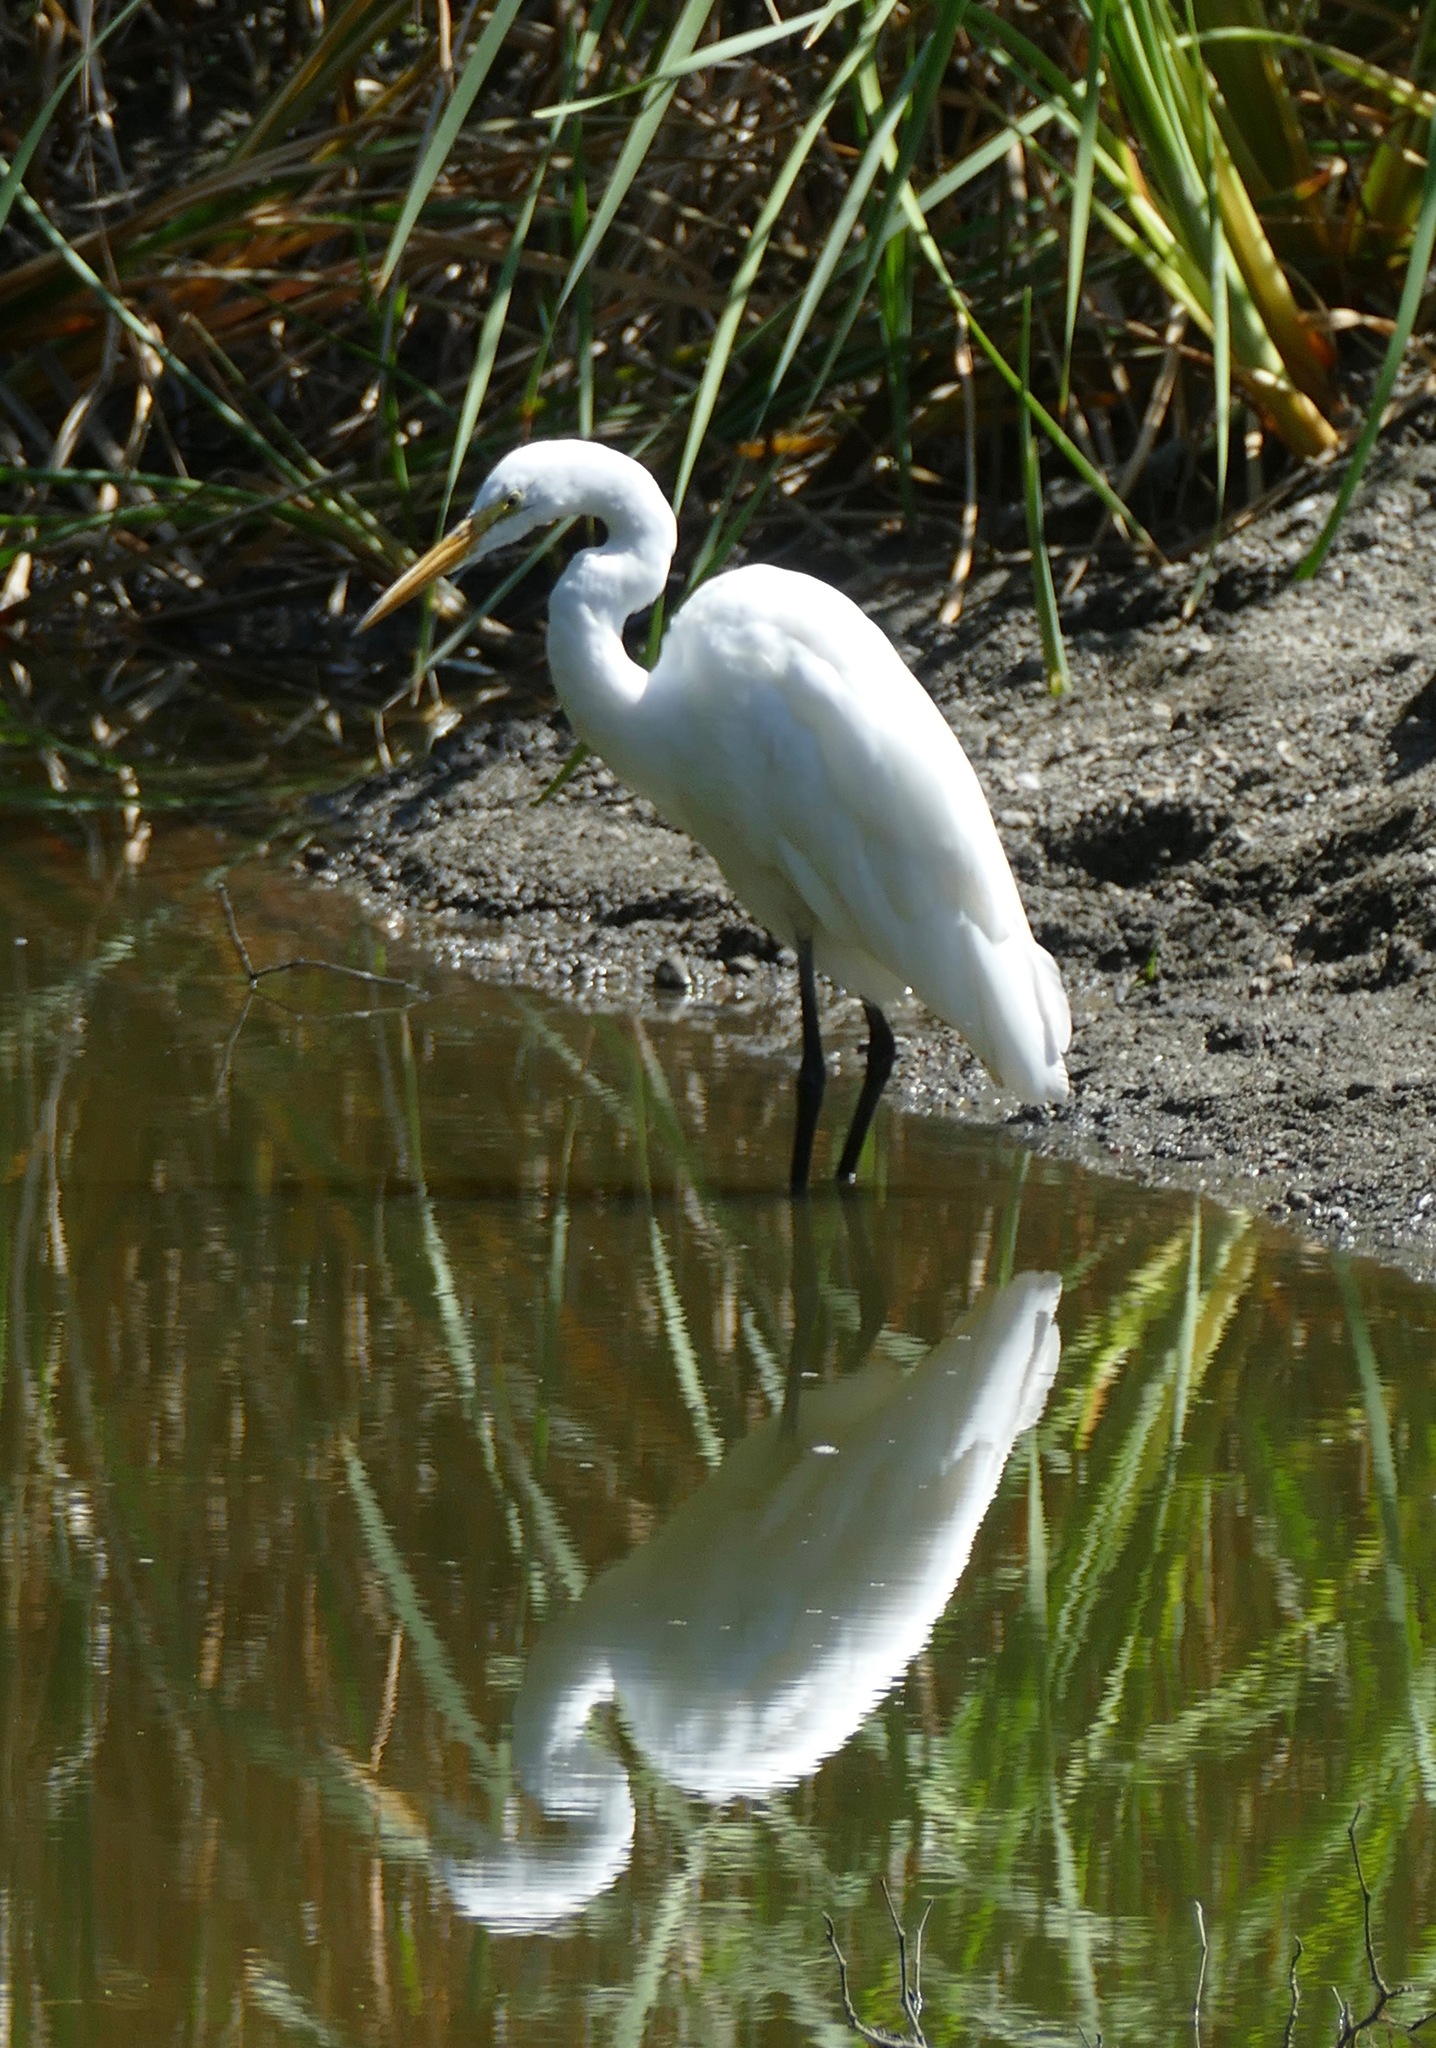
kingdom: Animalia
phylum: Chordata
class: Aves
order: Pelecaniformes
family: Ardeidae
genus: Ardea
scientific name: Ardea alba
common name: Great egret
